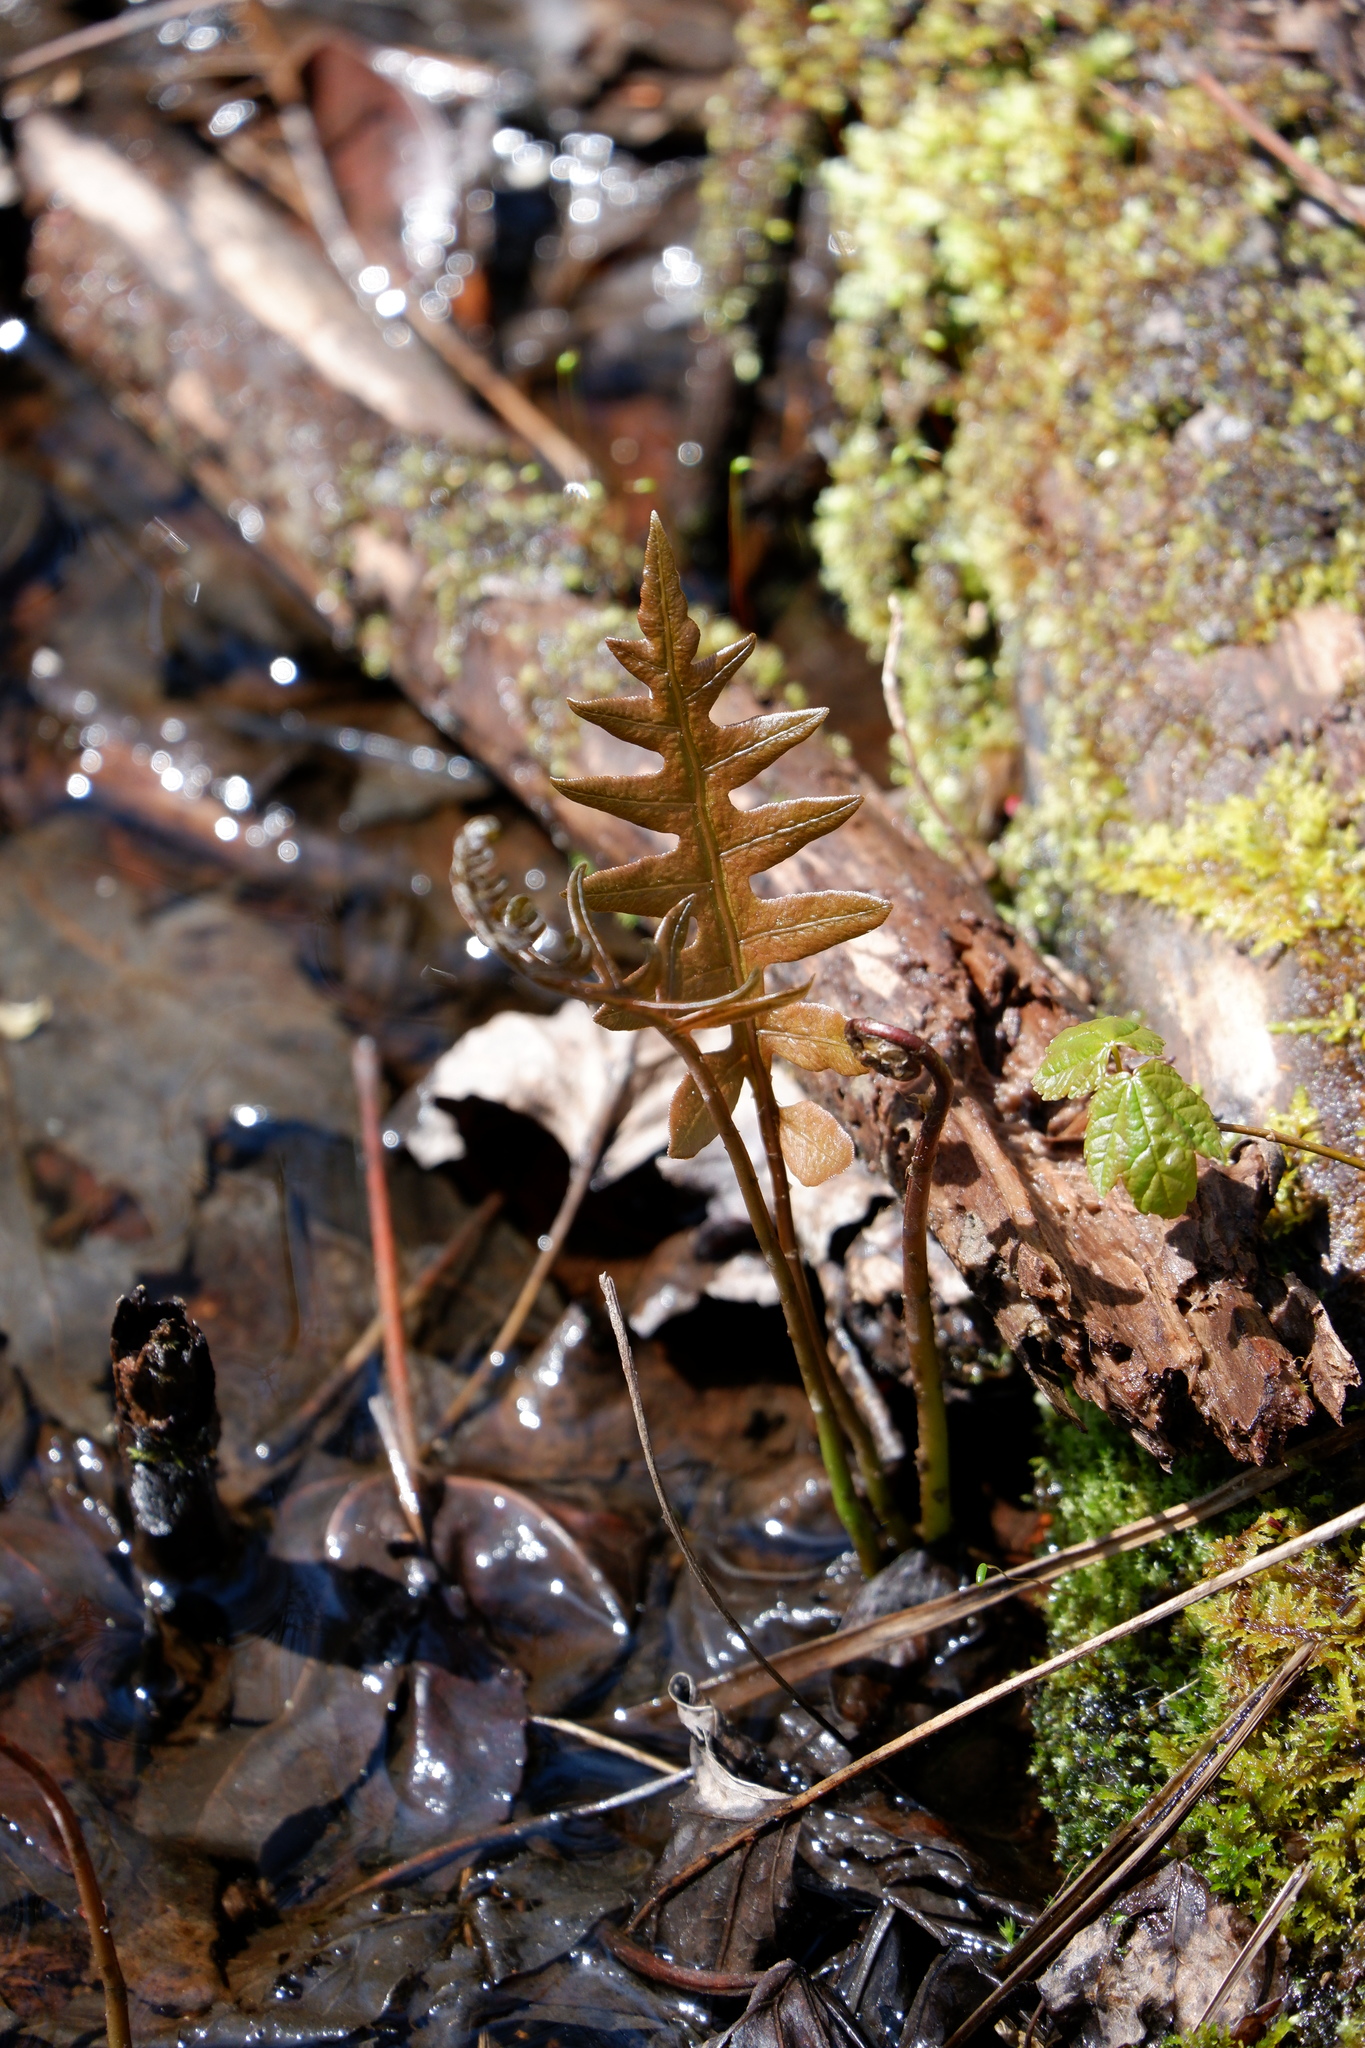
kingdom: Plantae
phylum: Tracheophyta
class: Polypodiopsida
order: Polypodiales
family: Blechnaceae
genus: Lorinseria
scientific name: Lorinseria areolata
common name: Dwarf chain fern
